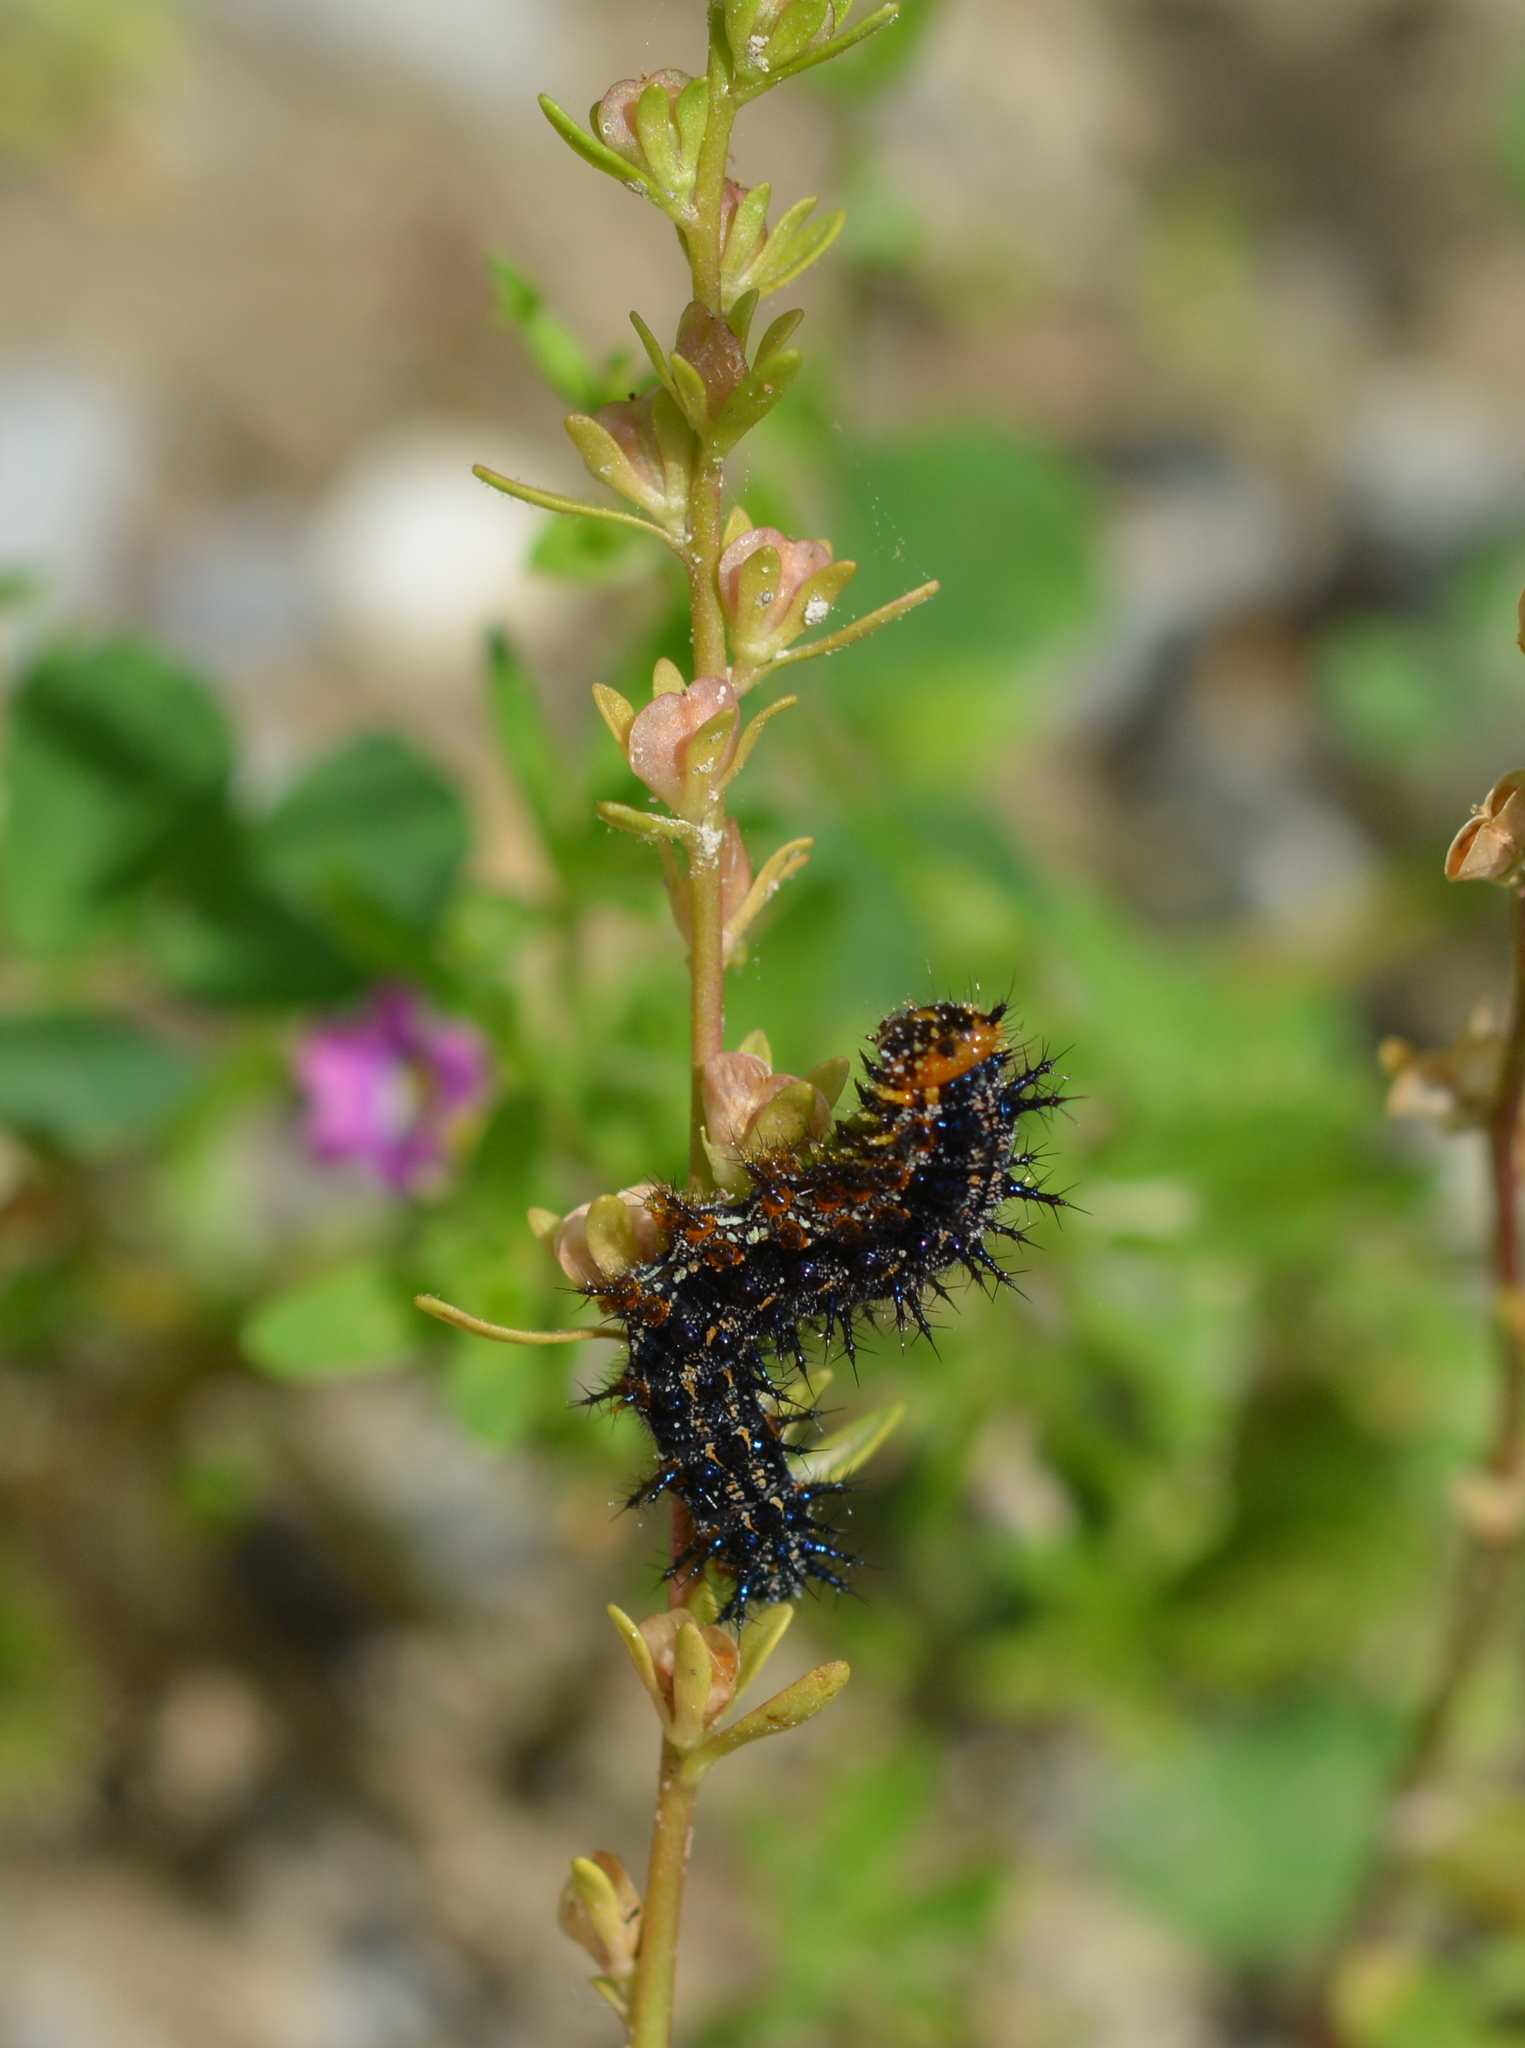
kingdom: Animalia
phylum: Arthropoda
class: Insecta
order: Lepidoptera
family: Nymphalidae
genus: Junonia
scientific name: Junonia coenia
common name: Common buckeye
